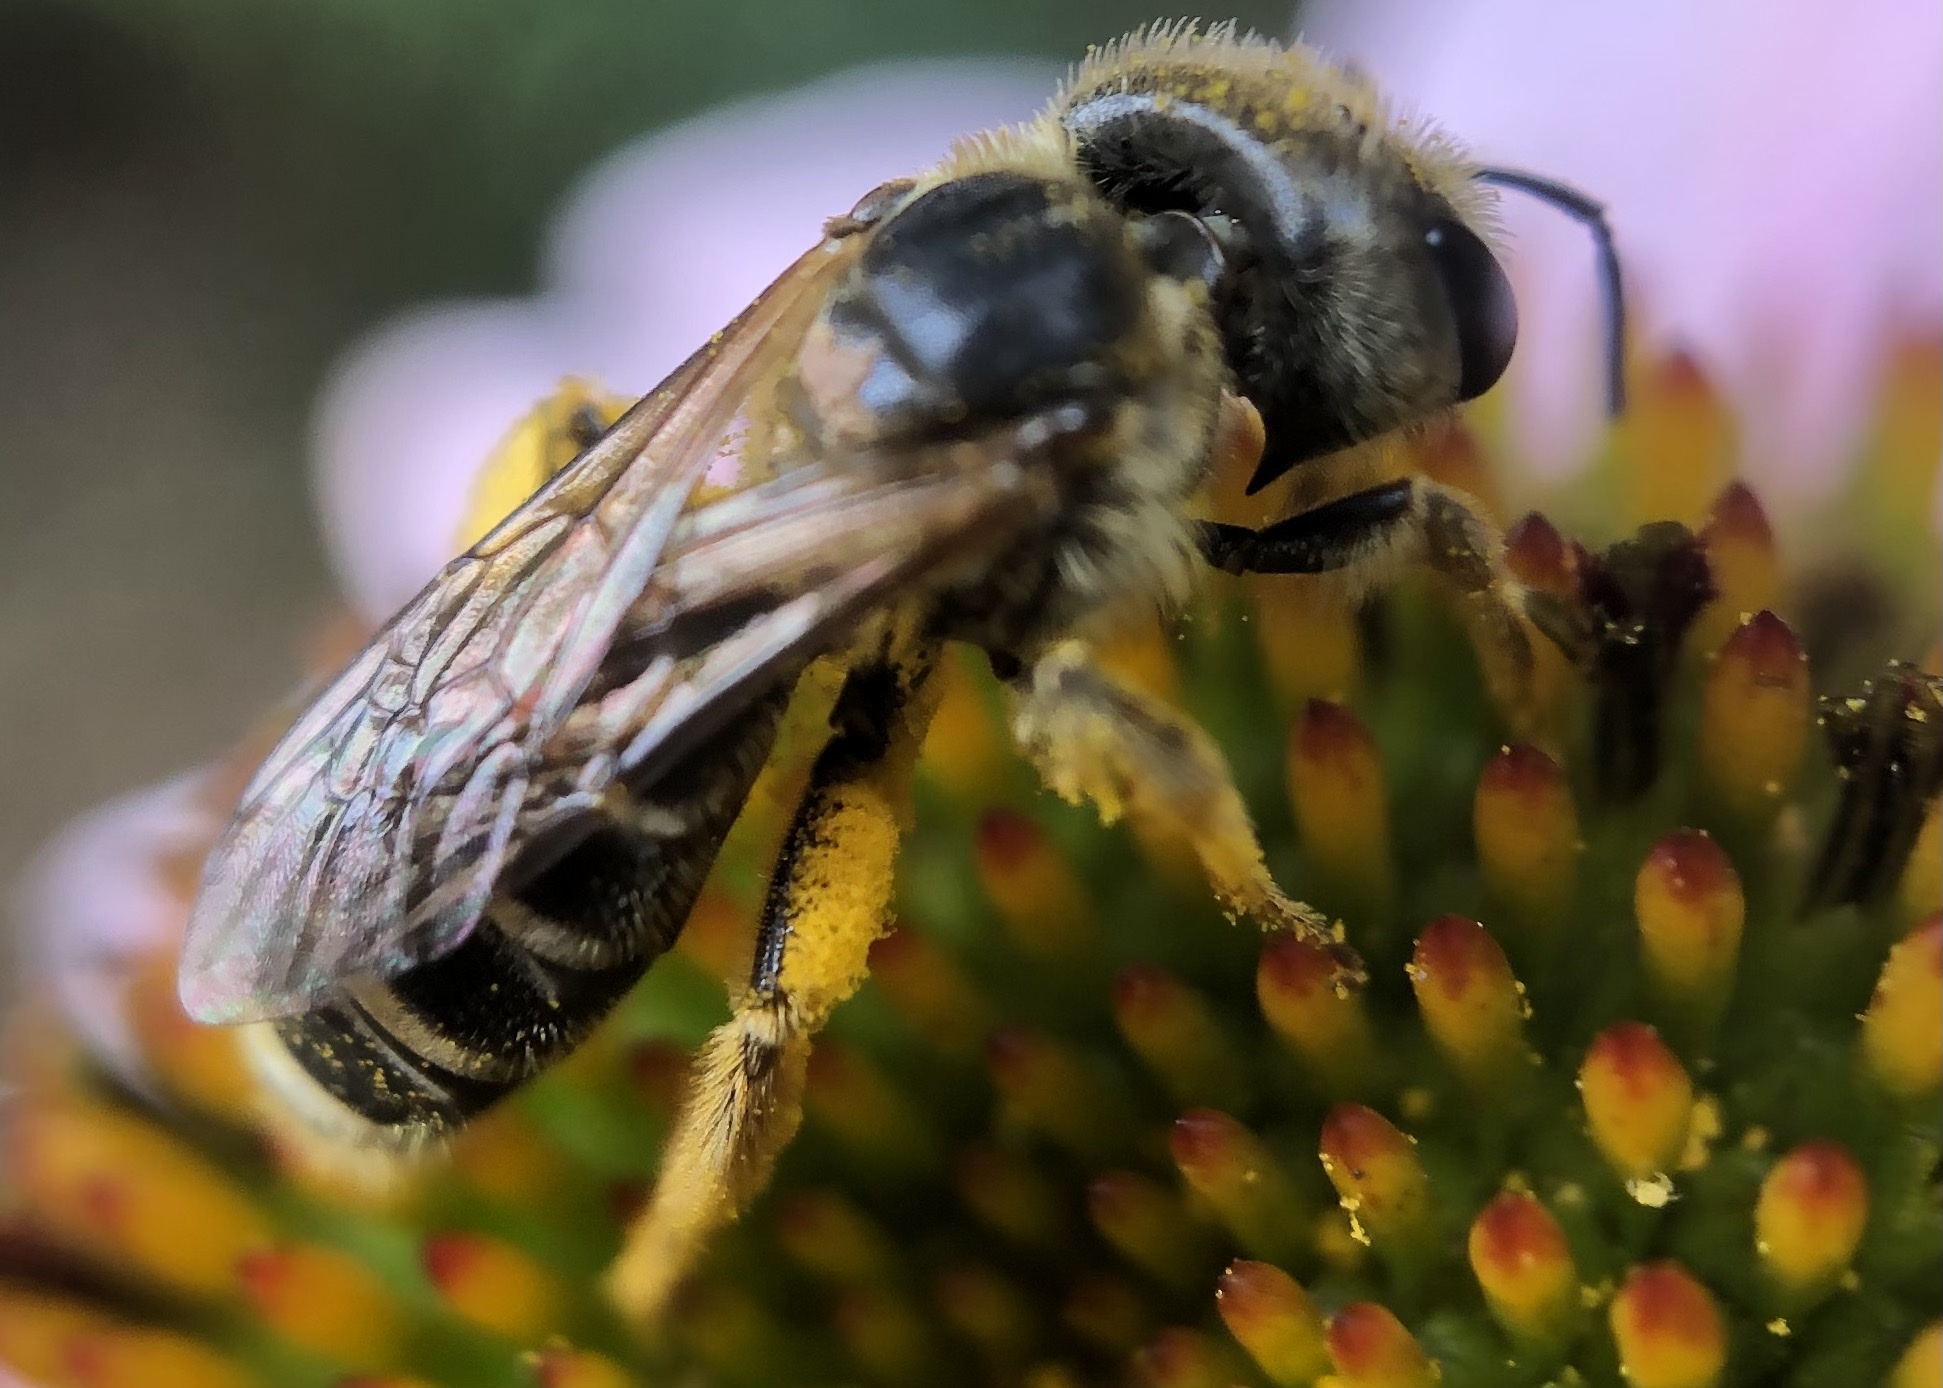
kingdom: Animalia
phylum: Arthropoda
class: Insecta
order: Hymenoptera
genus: Odontalictus
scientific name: Odontalictus
